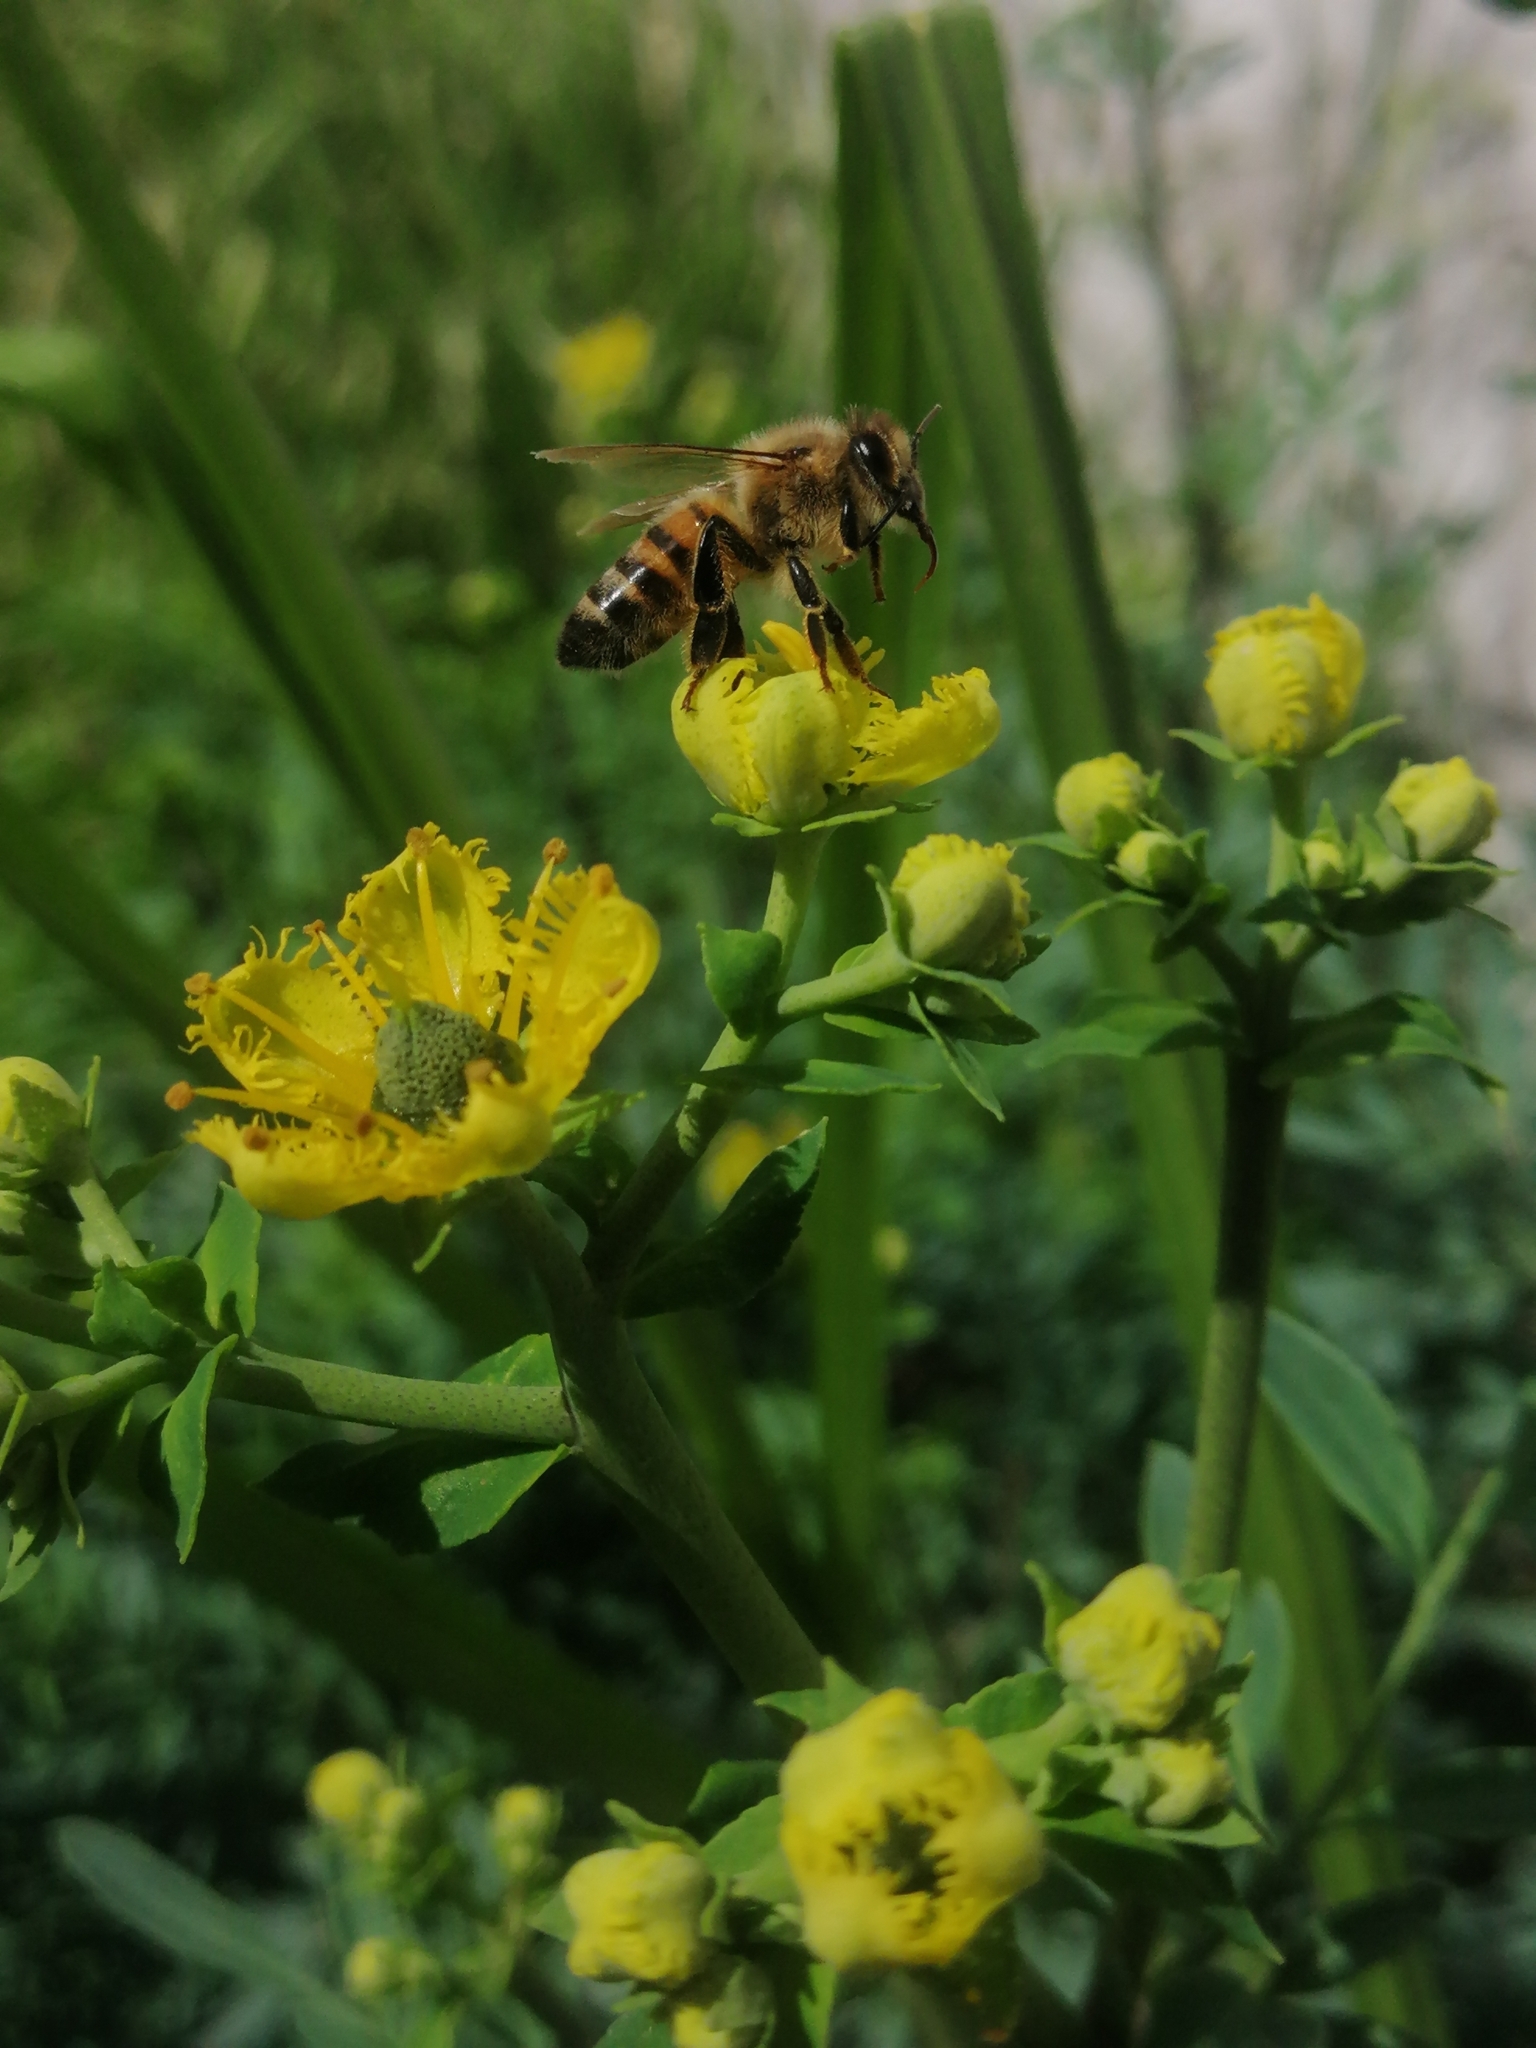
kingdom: Animalia
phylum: Arthropoda
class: Insecta
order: Hymenoptera
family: Apidae
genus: Apis
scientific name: Apis mellifera
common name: Honey bee
